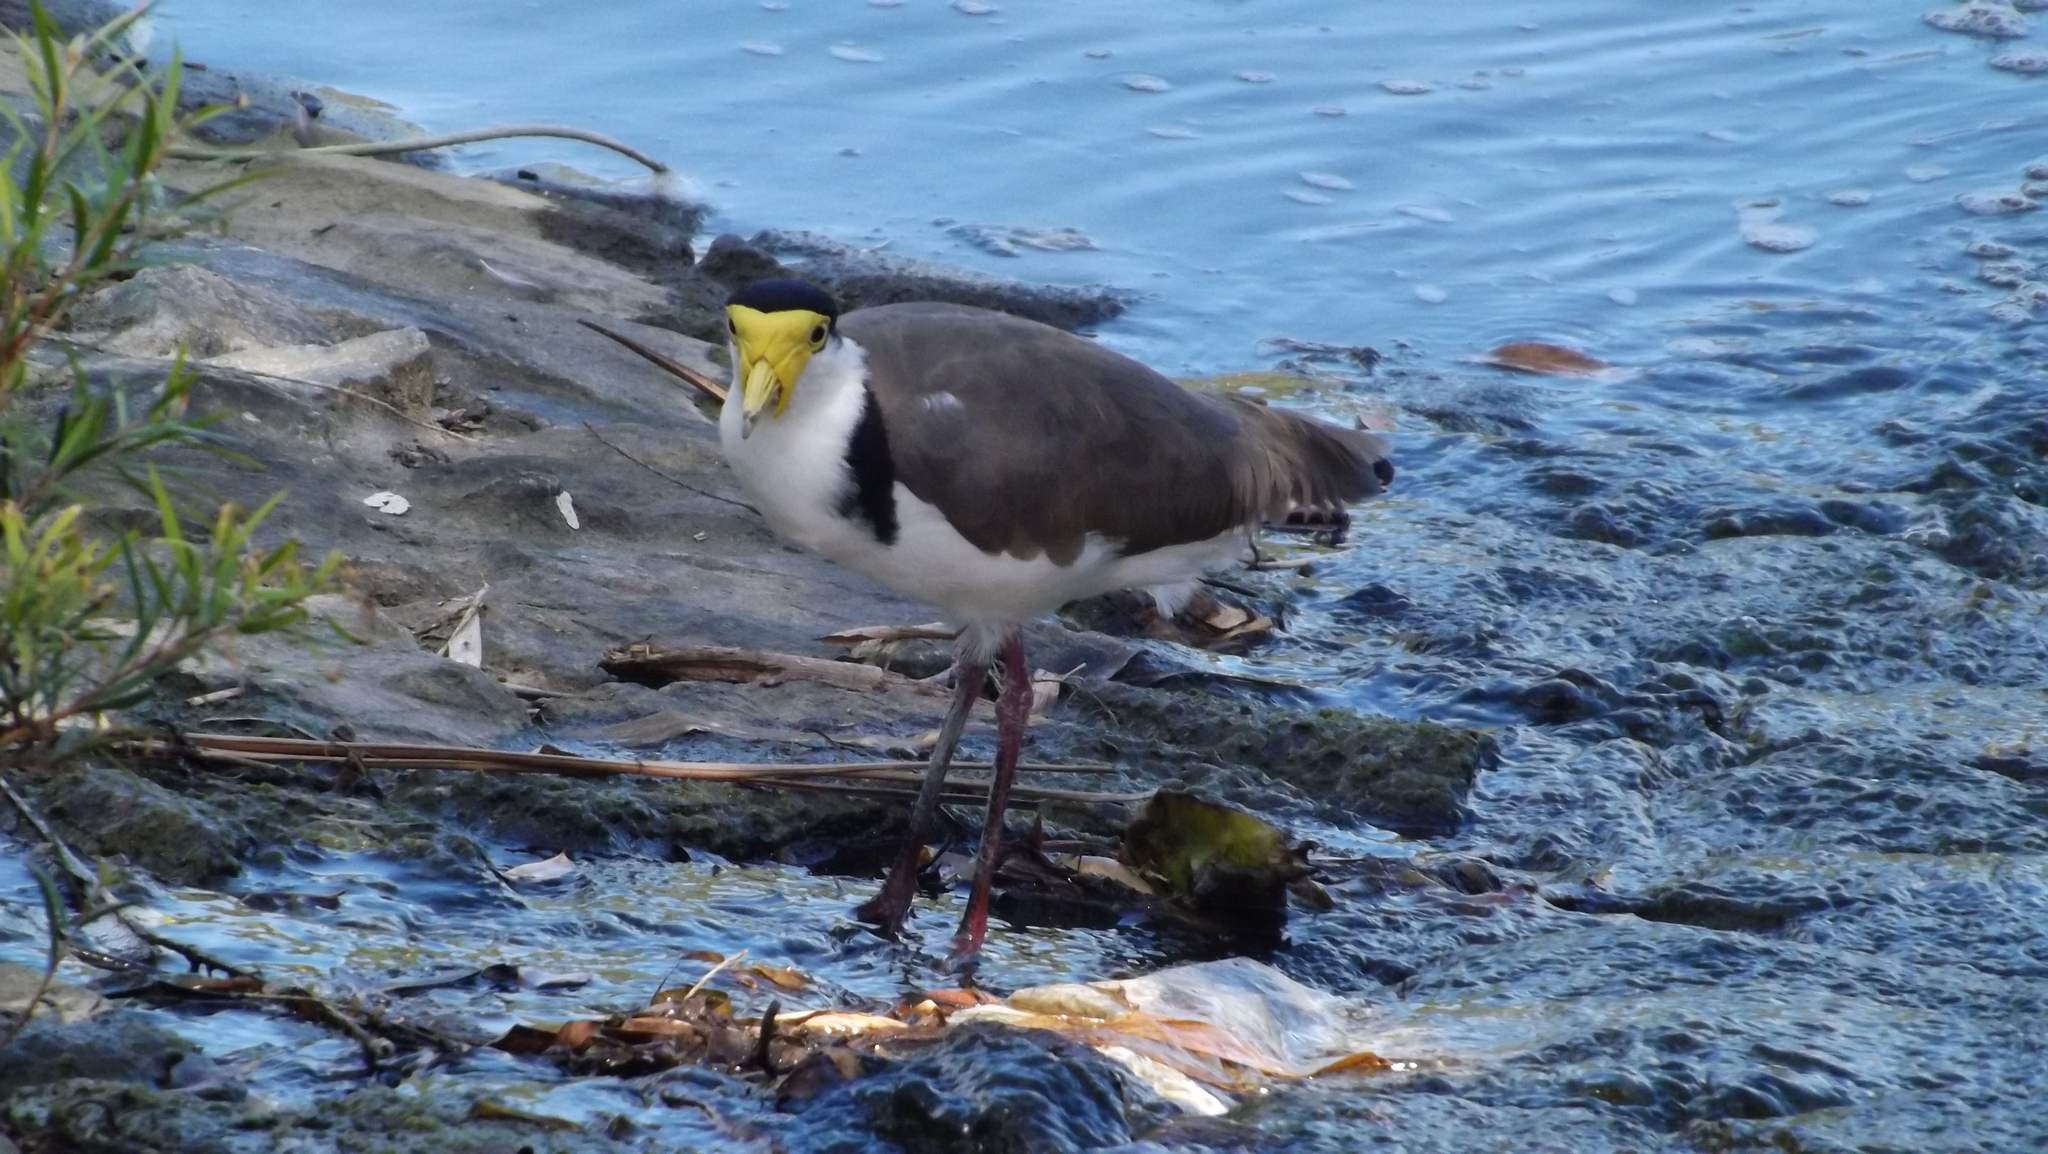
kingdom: Animalia
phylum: Chordata
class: Aves
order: Charadriiformes
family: Charadriidae
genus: Vanellus
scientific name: Vanellus miles
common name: Masked lapwing
